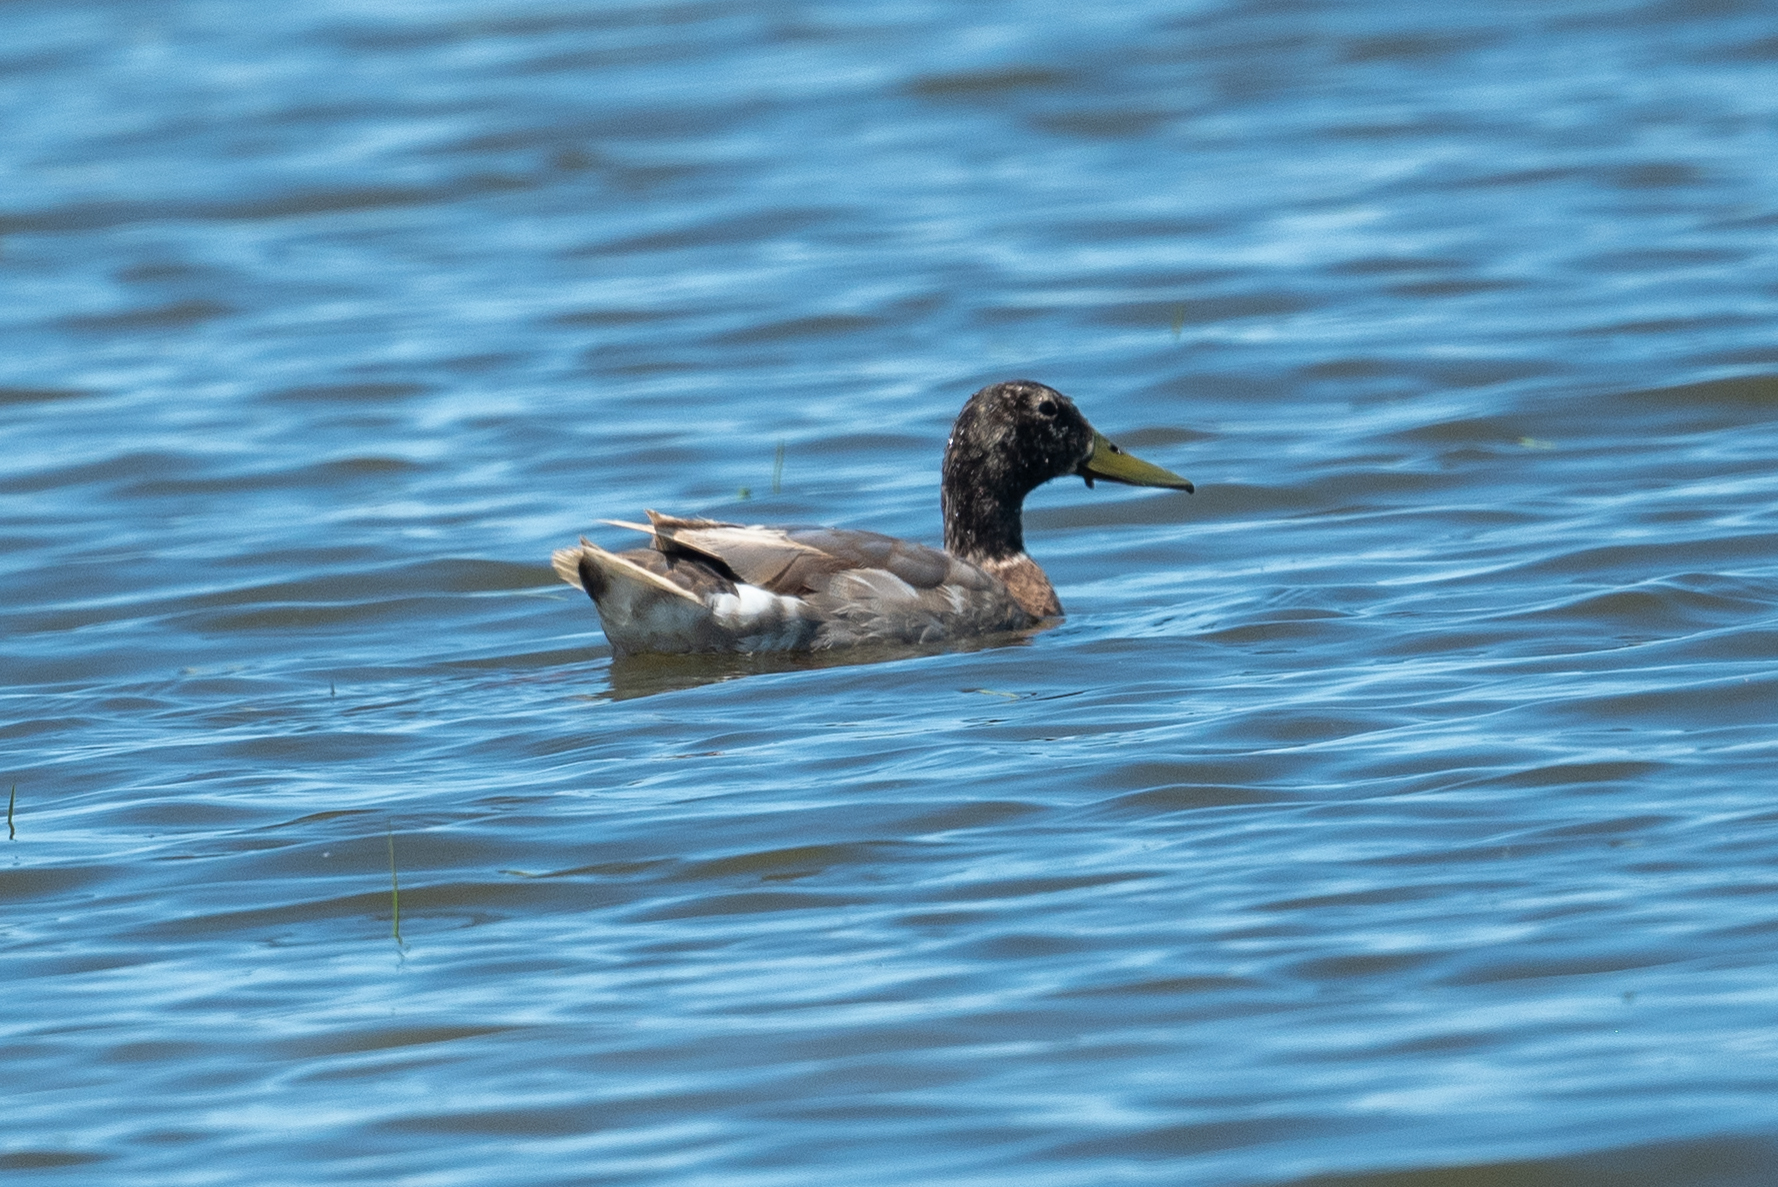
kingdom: Animalia
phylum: Chordata
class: Aves
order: Anseriformes
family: Anatidae
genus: Anas
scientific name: Anas platyrhynchos
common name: Mallard
